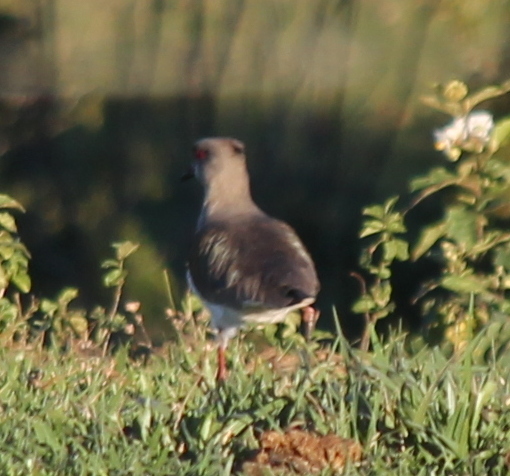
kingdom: Animalia
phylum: Chordata
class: Aves
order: Charadriiformes
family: Charadriidae
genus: Vanellus
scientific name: Vanellus chilensis
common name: Southern lapwing
